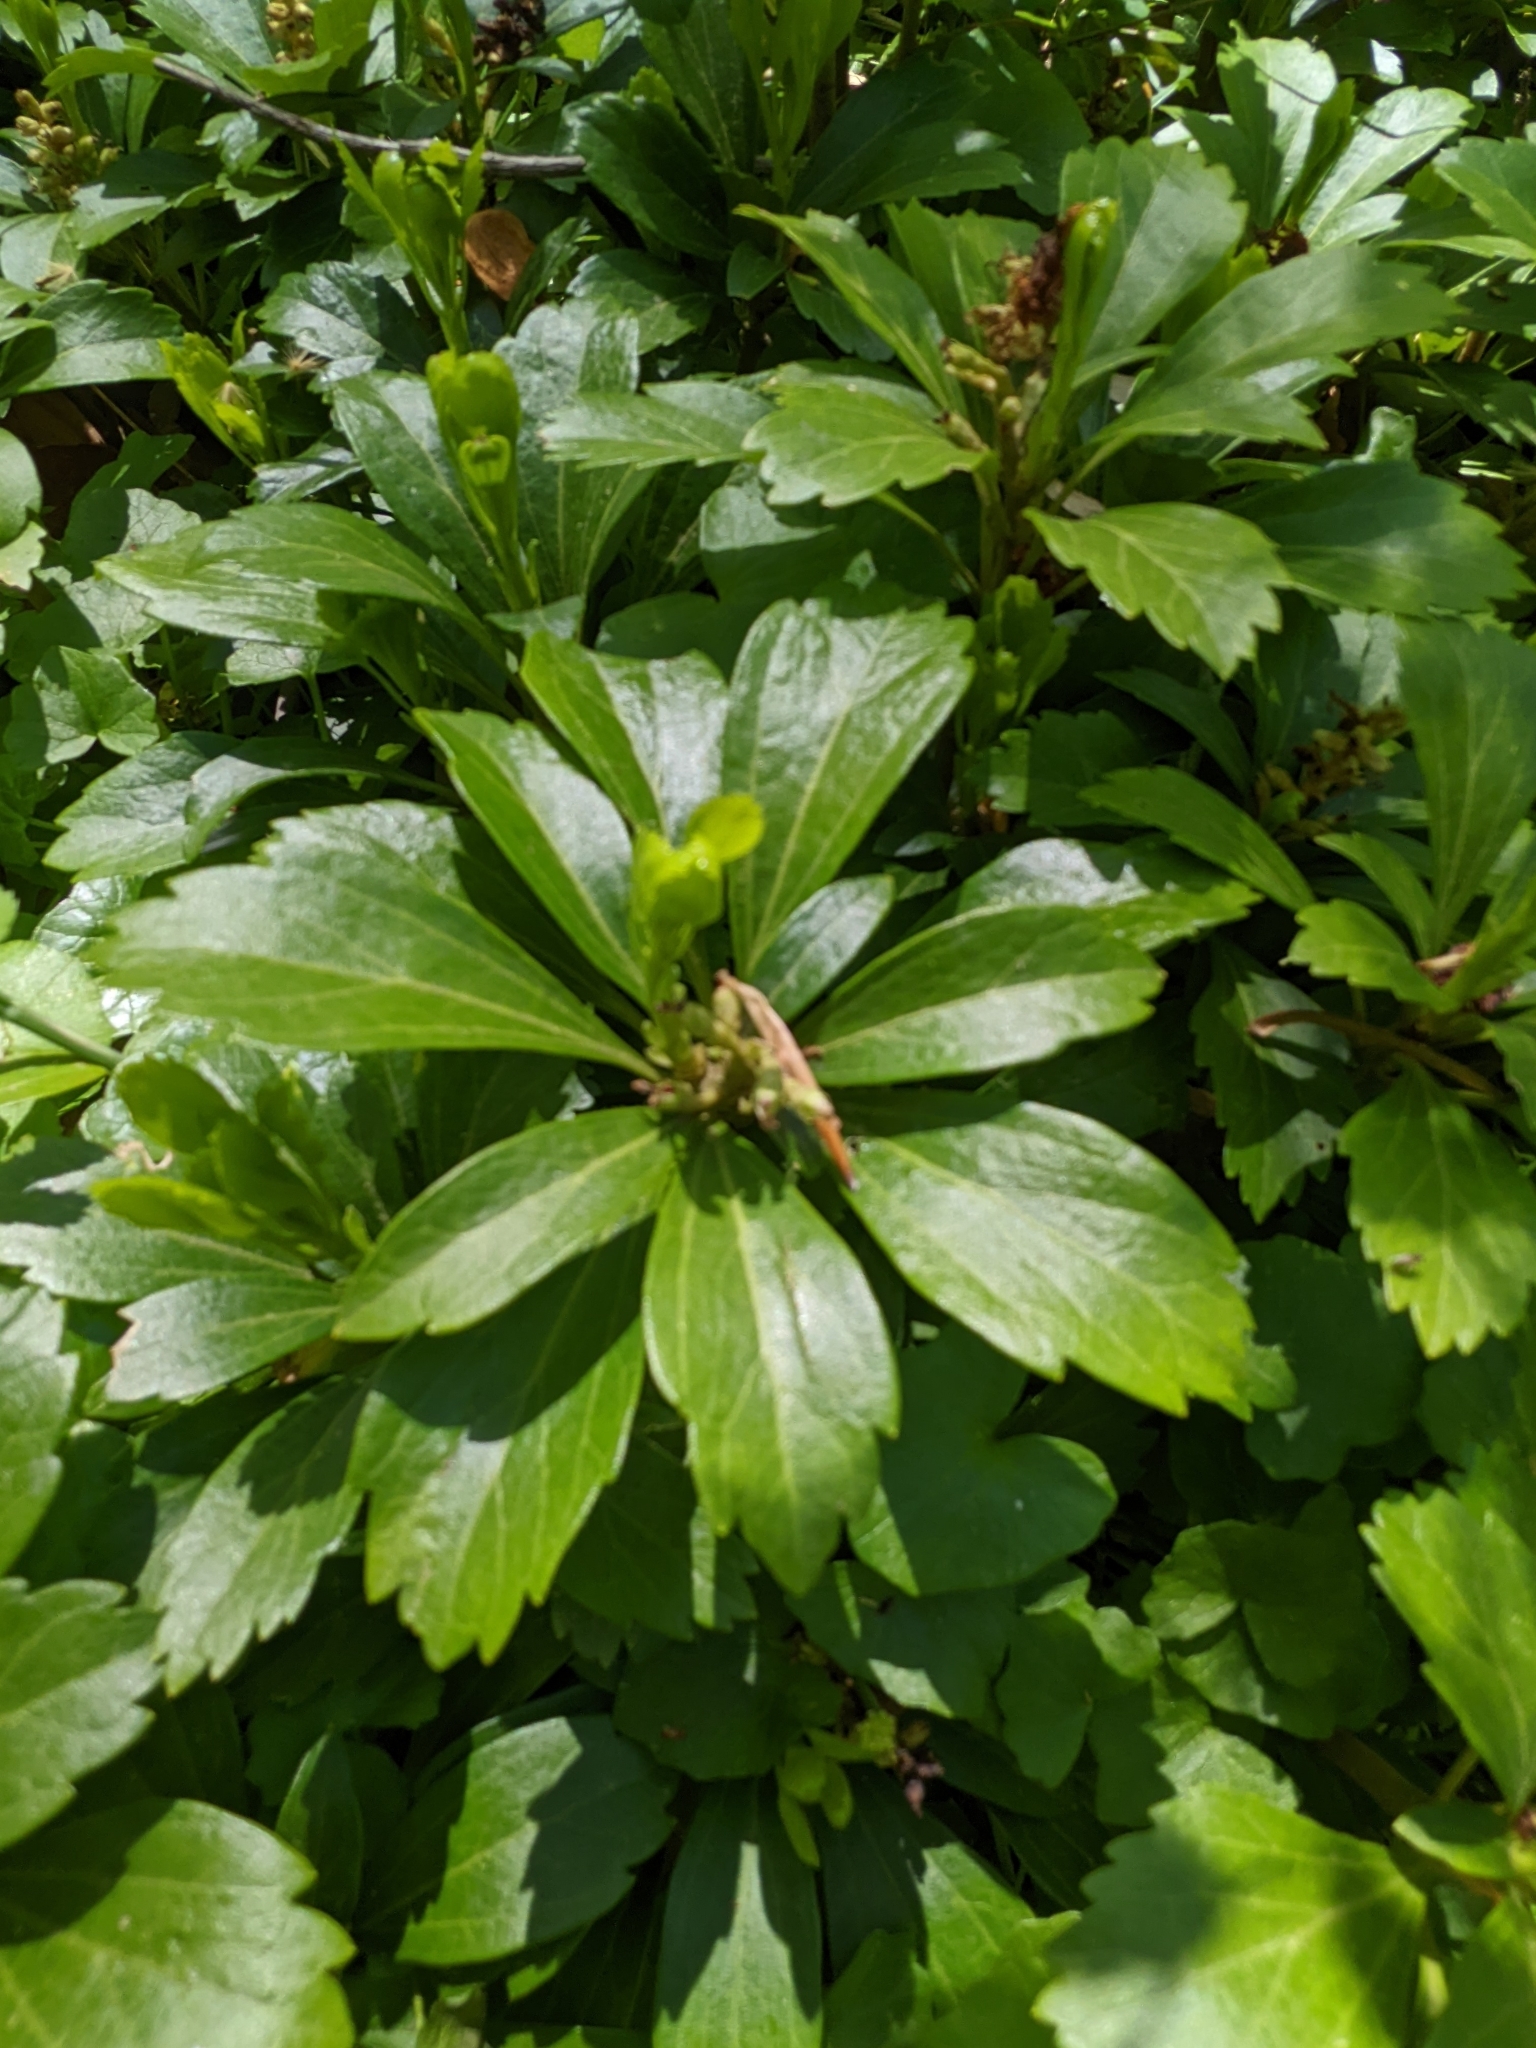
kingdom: Plantae
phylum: Tracheophyta
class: Magnoliopsida
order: Buxales
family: Buxaceae
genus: Pachysandra
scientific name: Pachysandra terminalis
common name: Japanese pachysandra
